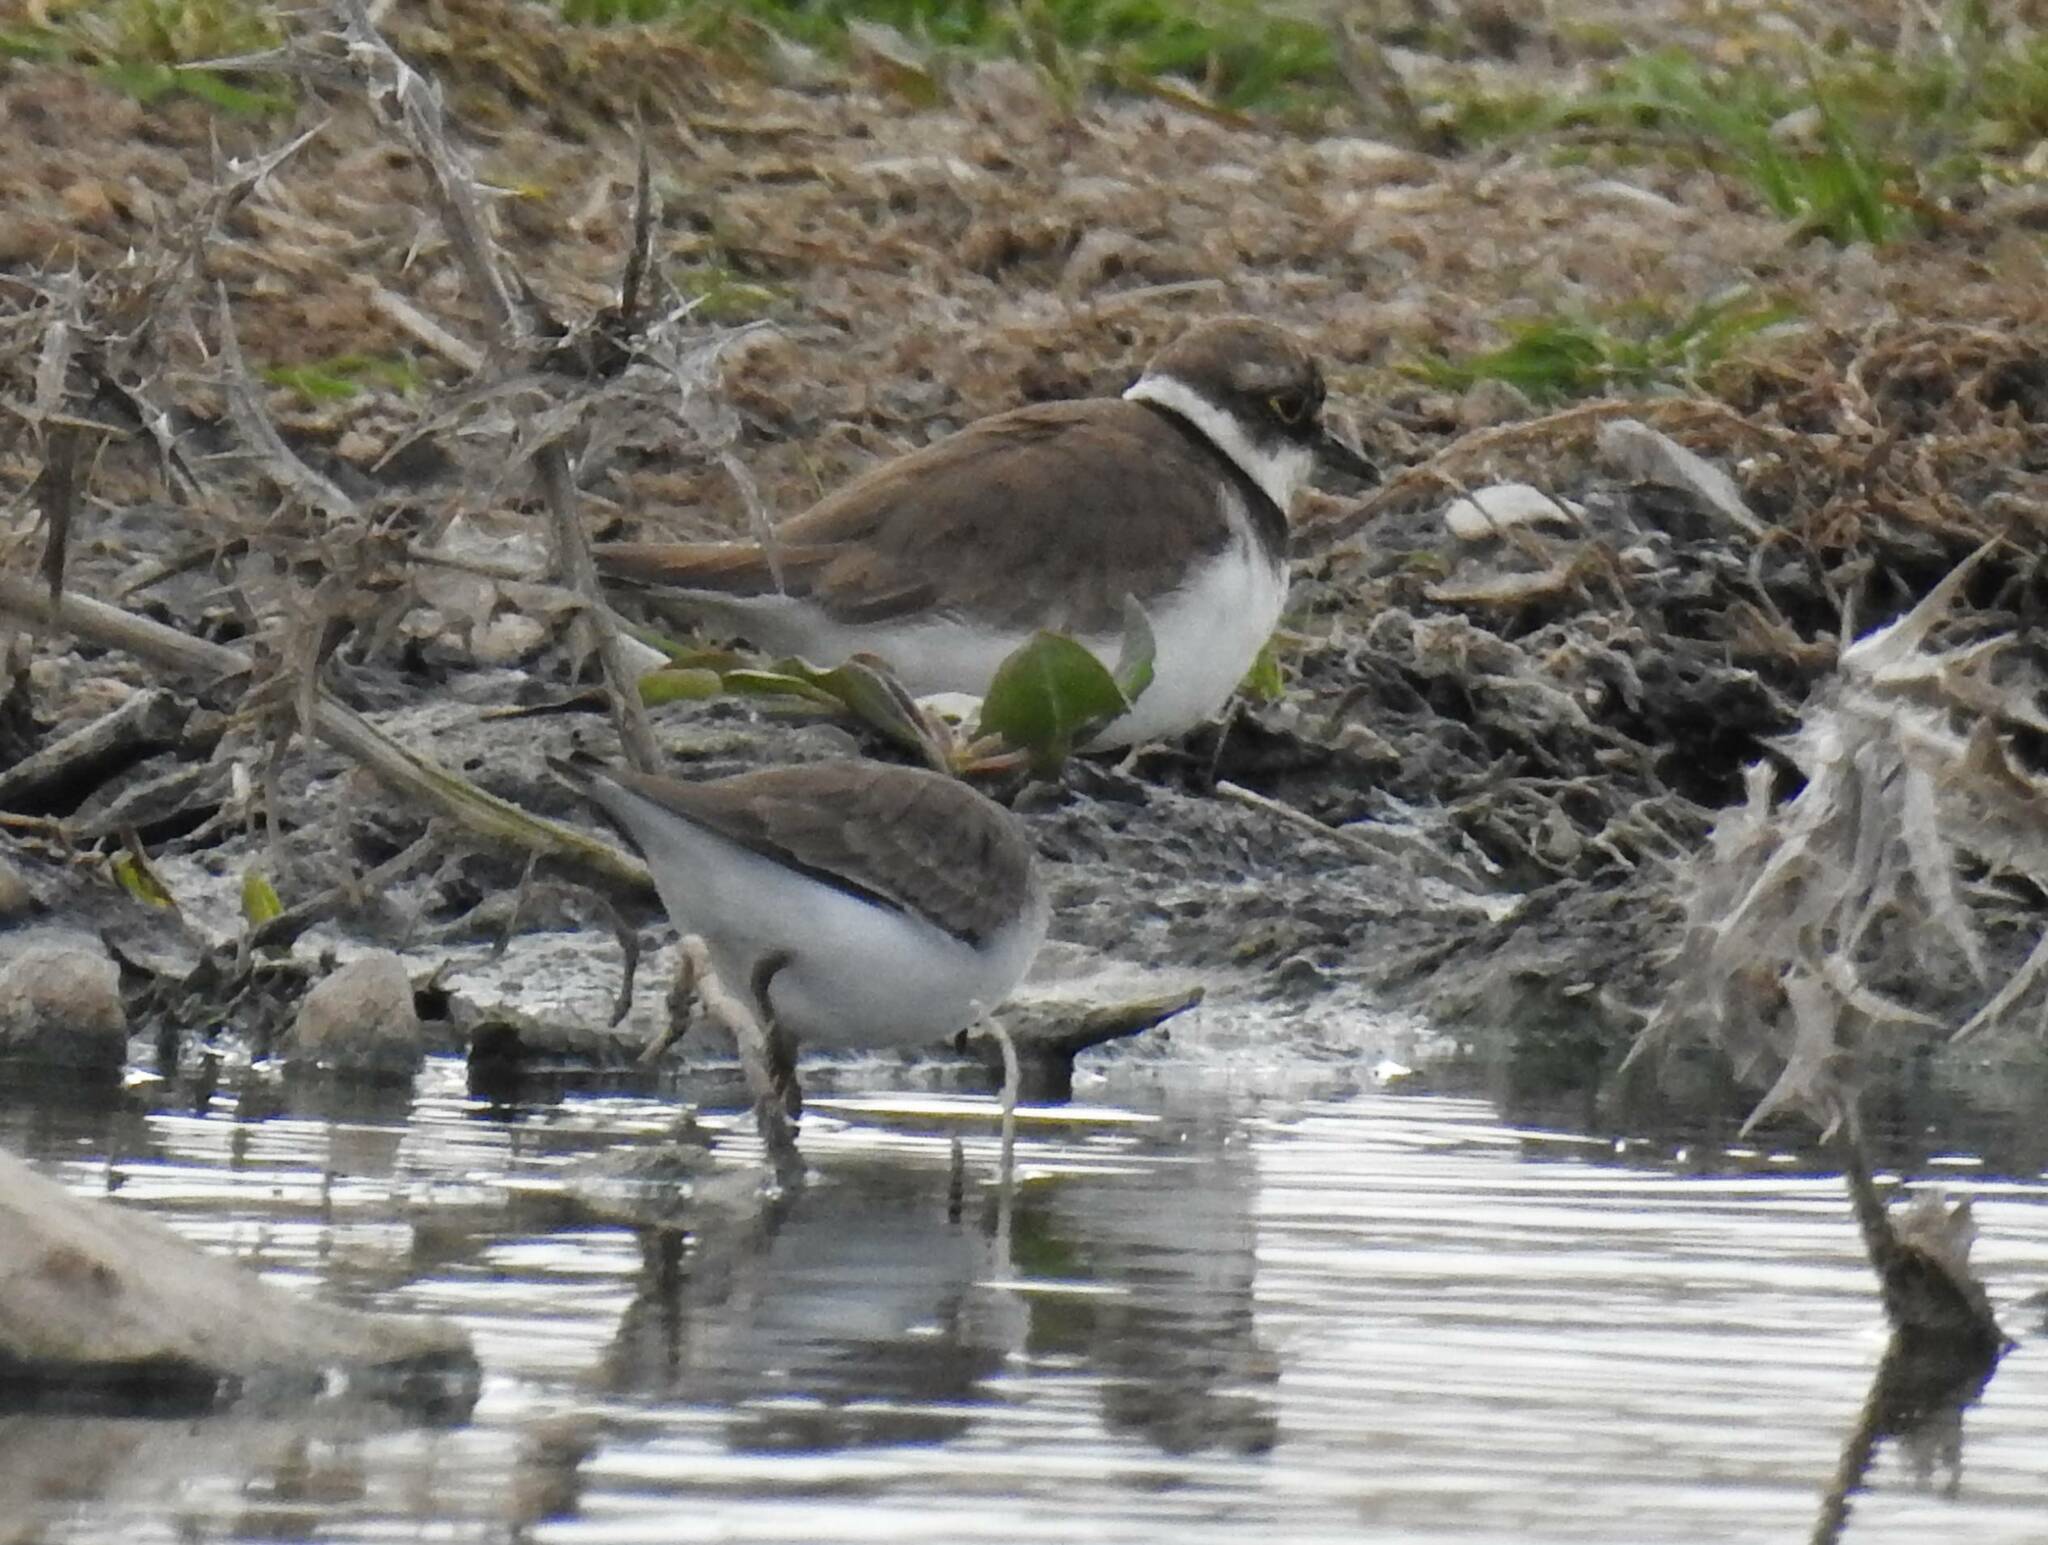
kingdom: Animalia
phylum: Chordata
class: Aves
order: Charadriiformes
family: Charadriidae
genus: Charadrius
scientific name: Charadrius dubius
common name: Little ringed plover
